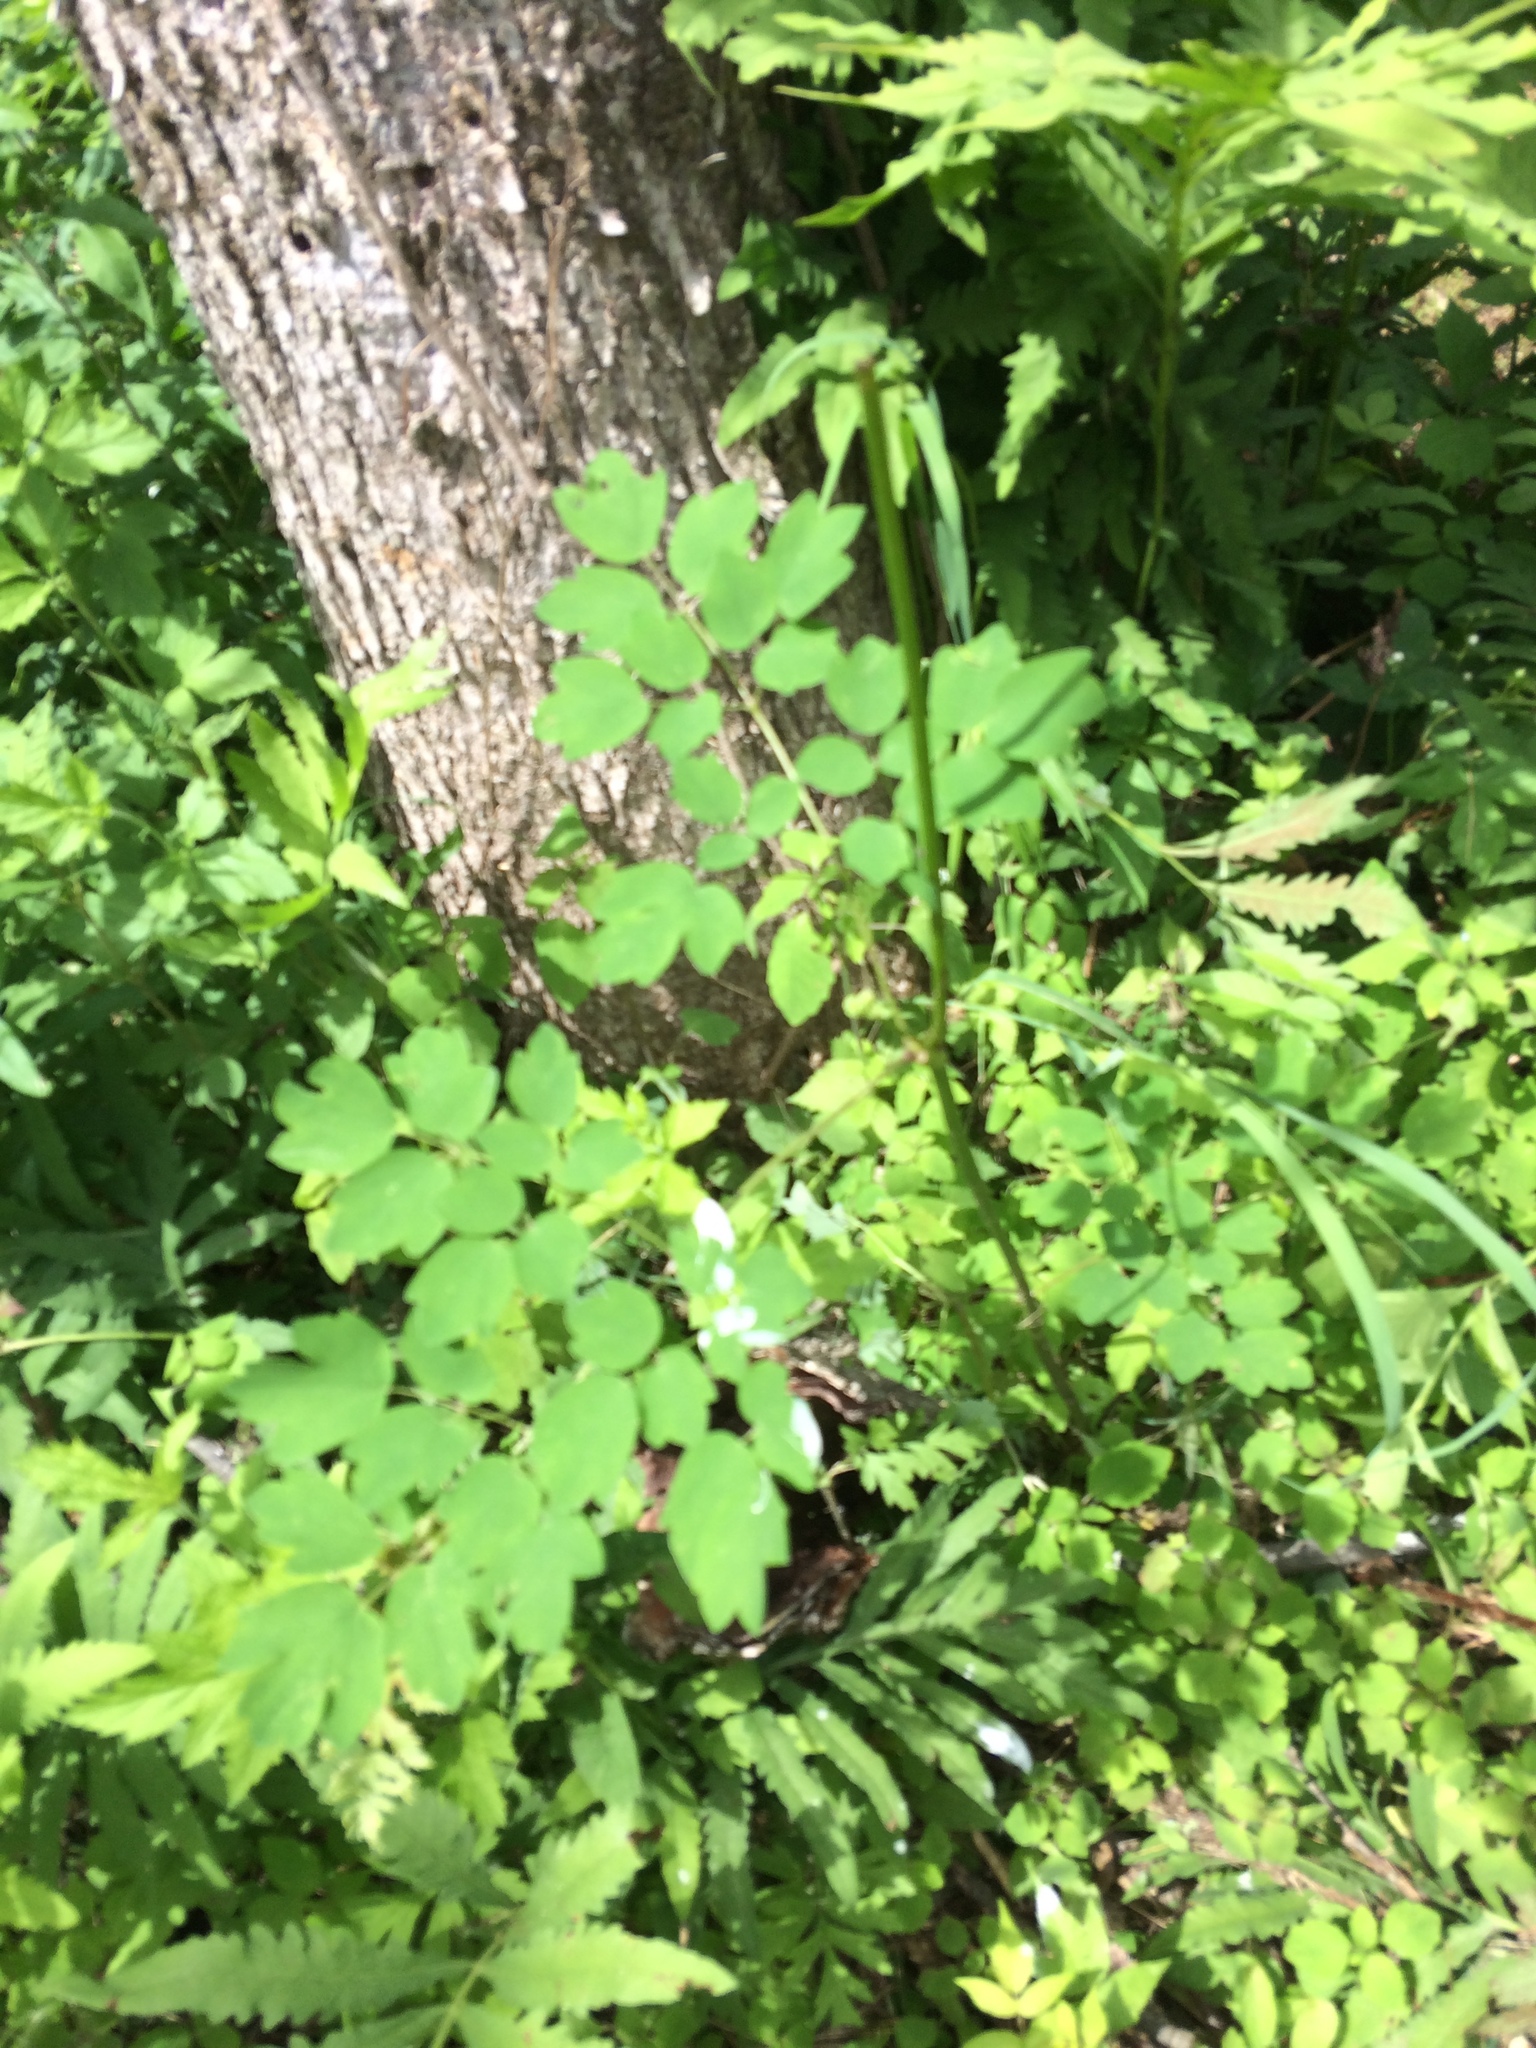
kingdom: Plantae
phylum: Tracheophyta
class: Magnoliopsida
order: Ranunculales
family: Ranunculaceae
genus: Thalictrum
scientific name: Thalictrum pubescens
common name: King-of-the-meadow
